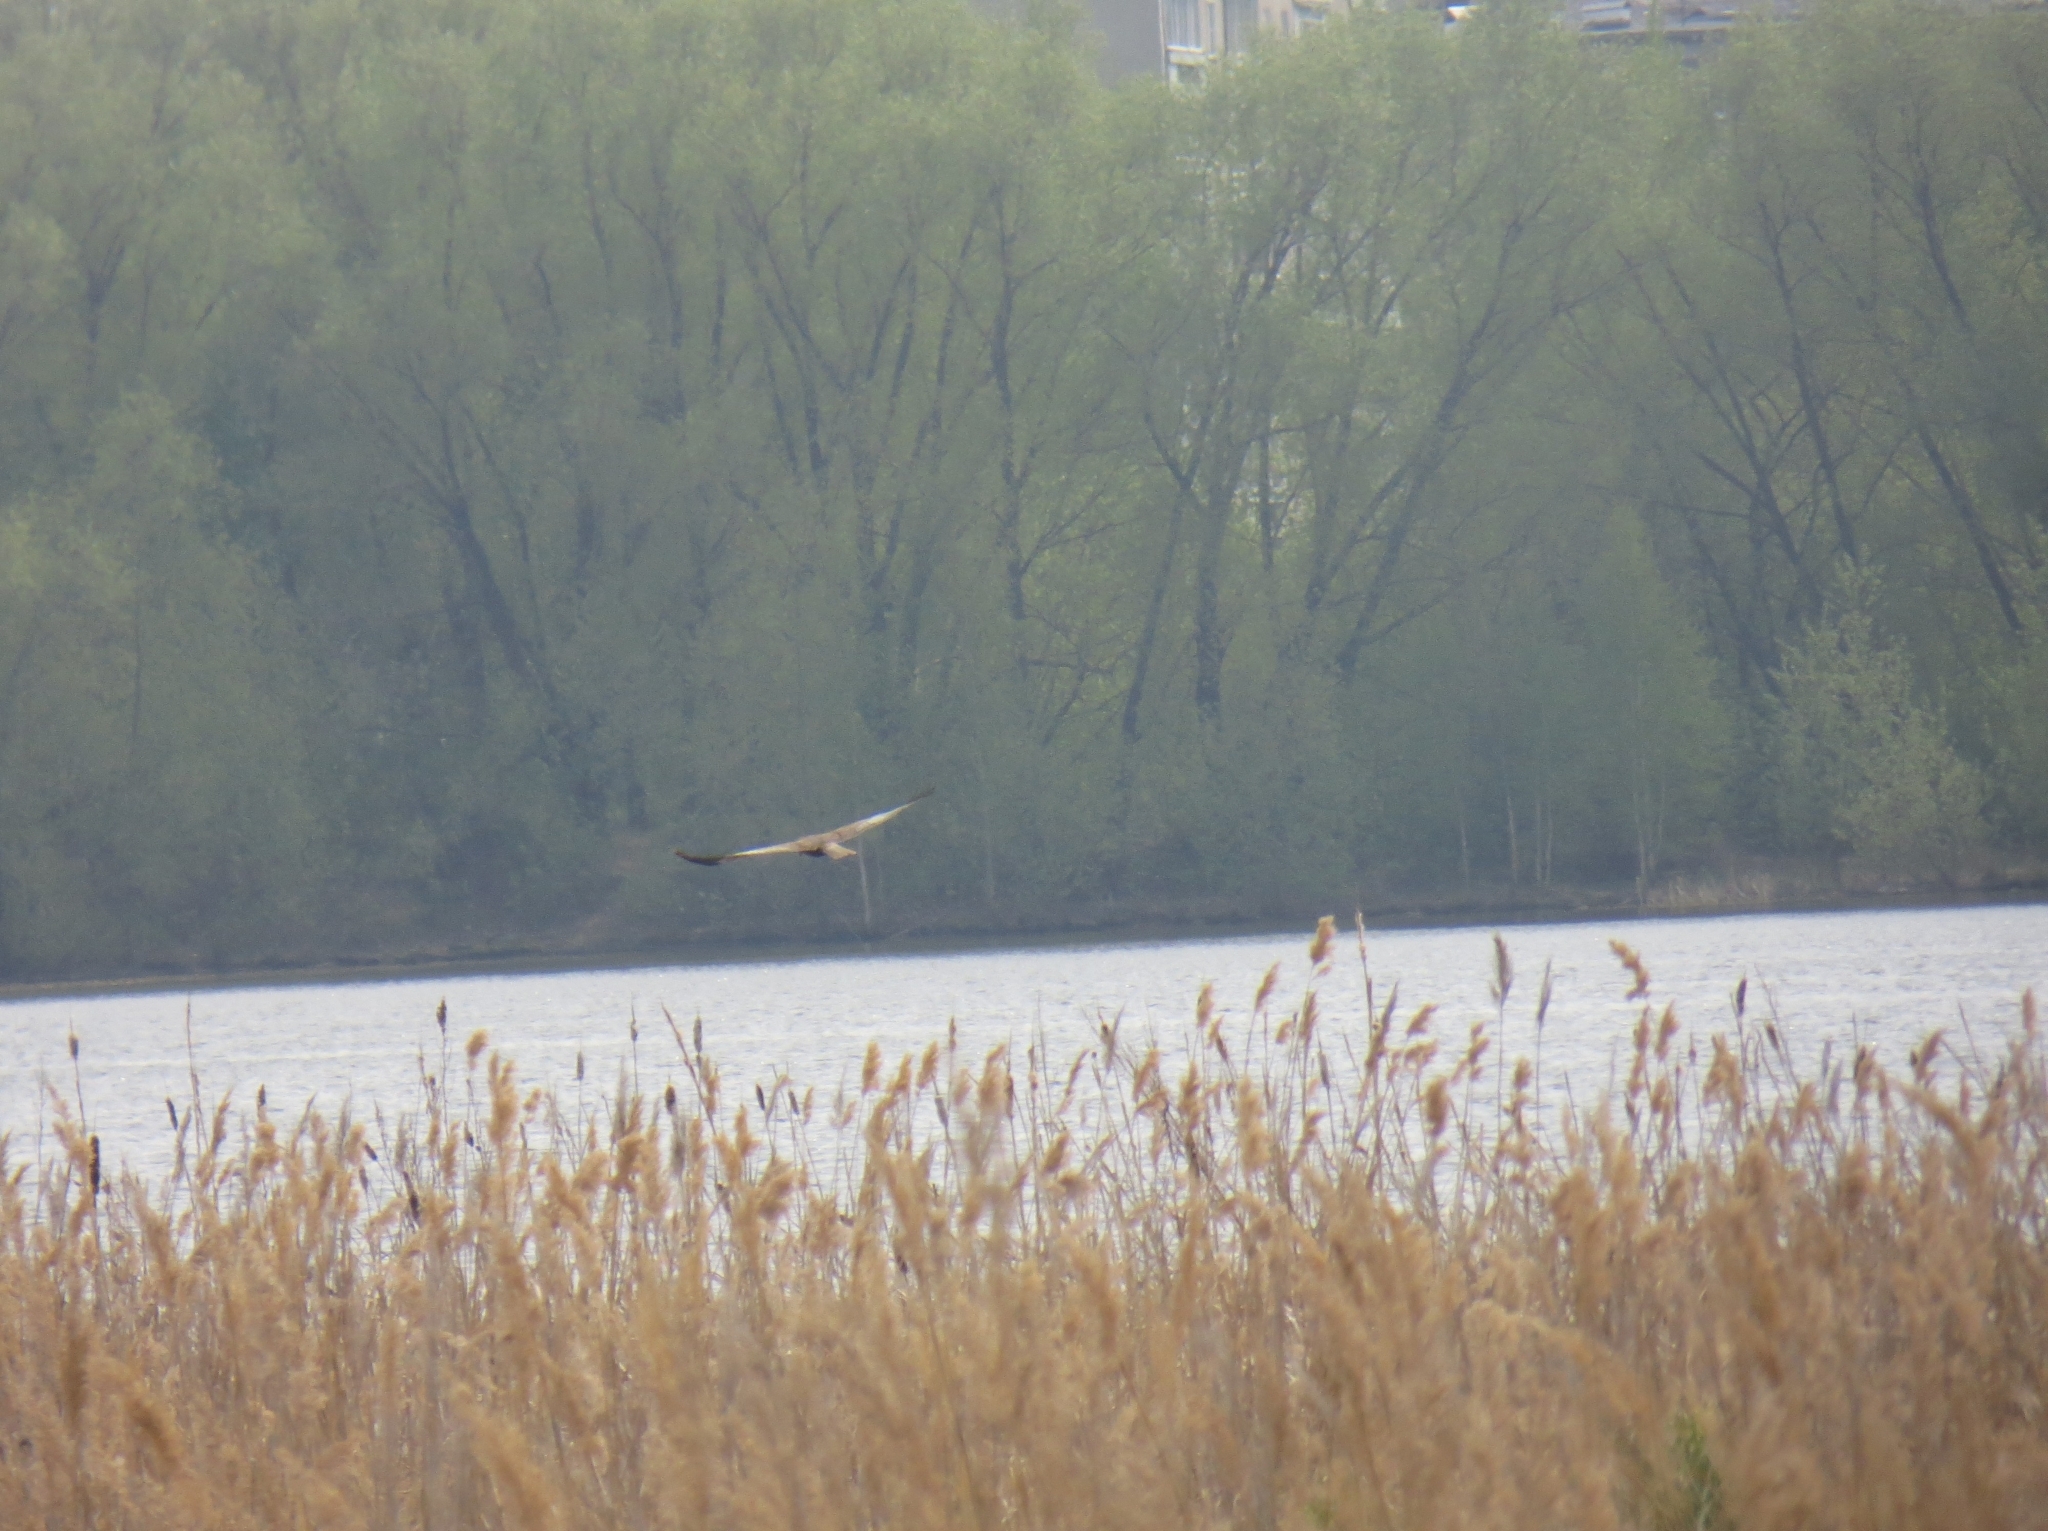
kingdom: Animalia
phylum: Chordata
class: Aves
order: Accipitriformes
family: Accipitridae
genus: Circus
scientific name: Circus aeruginosus
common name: Western marsh harrier
